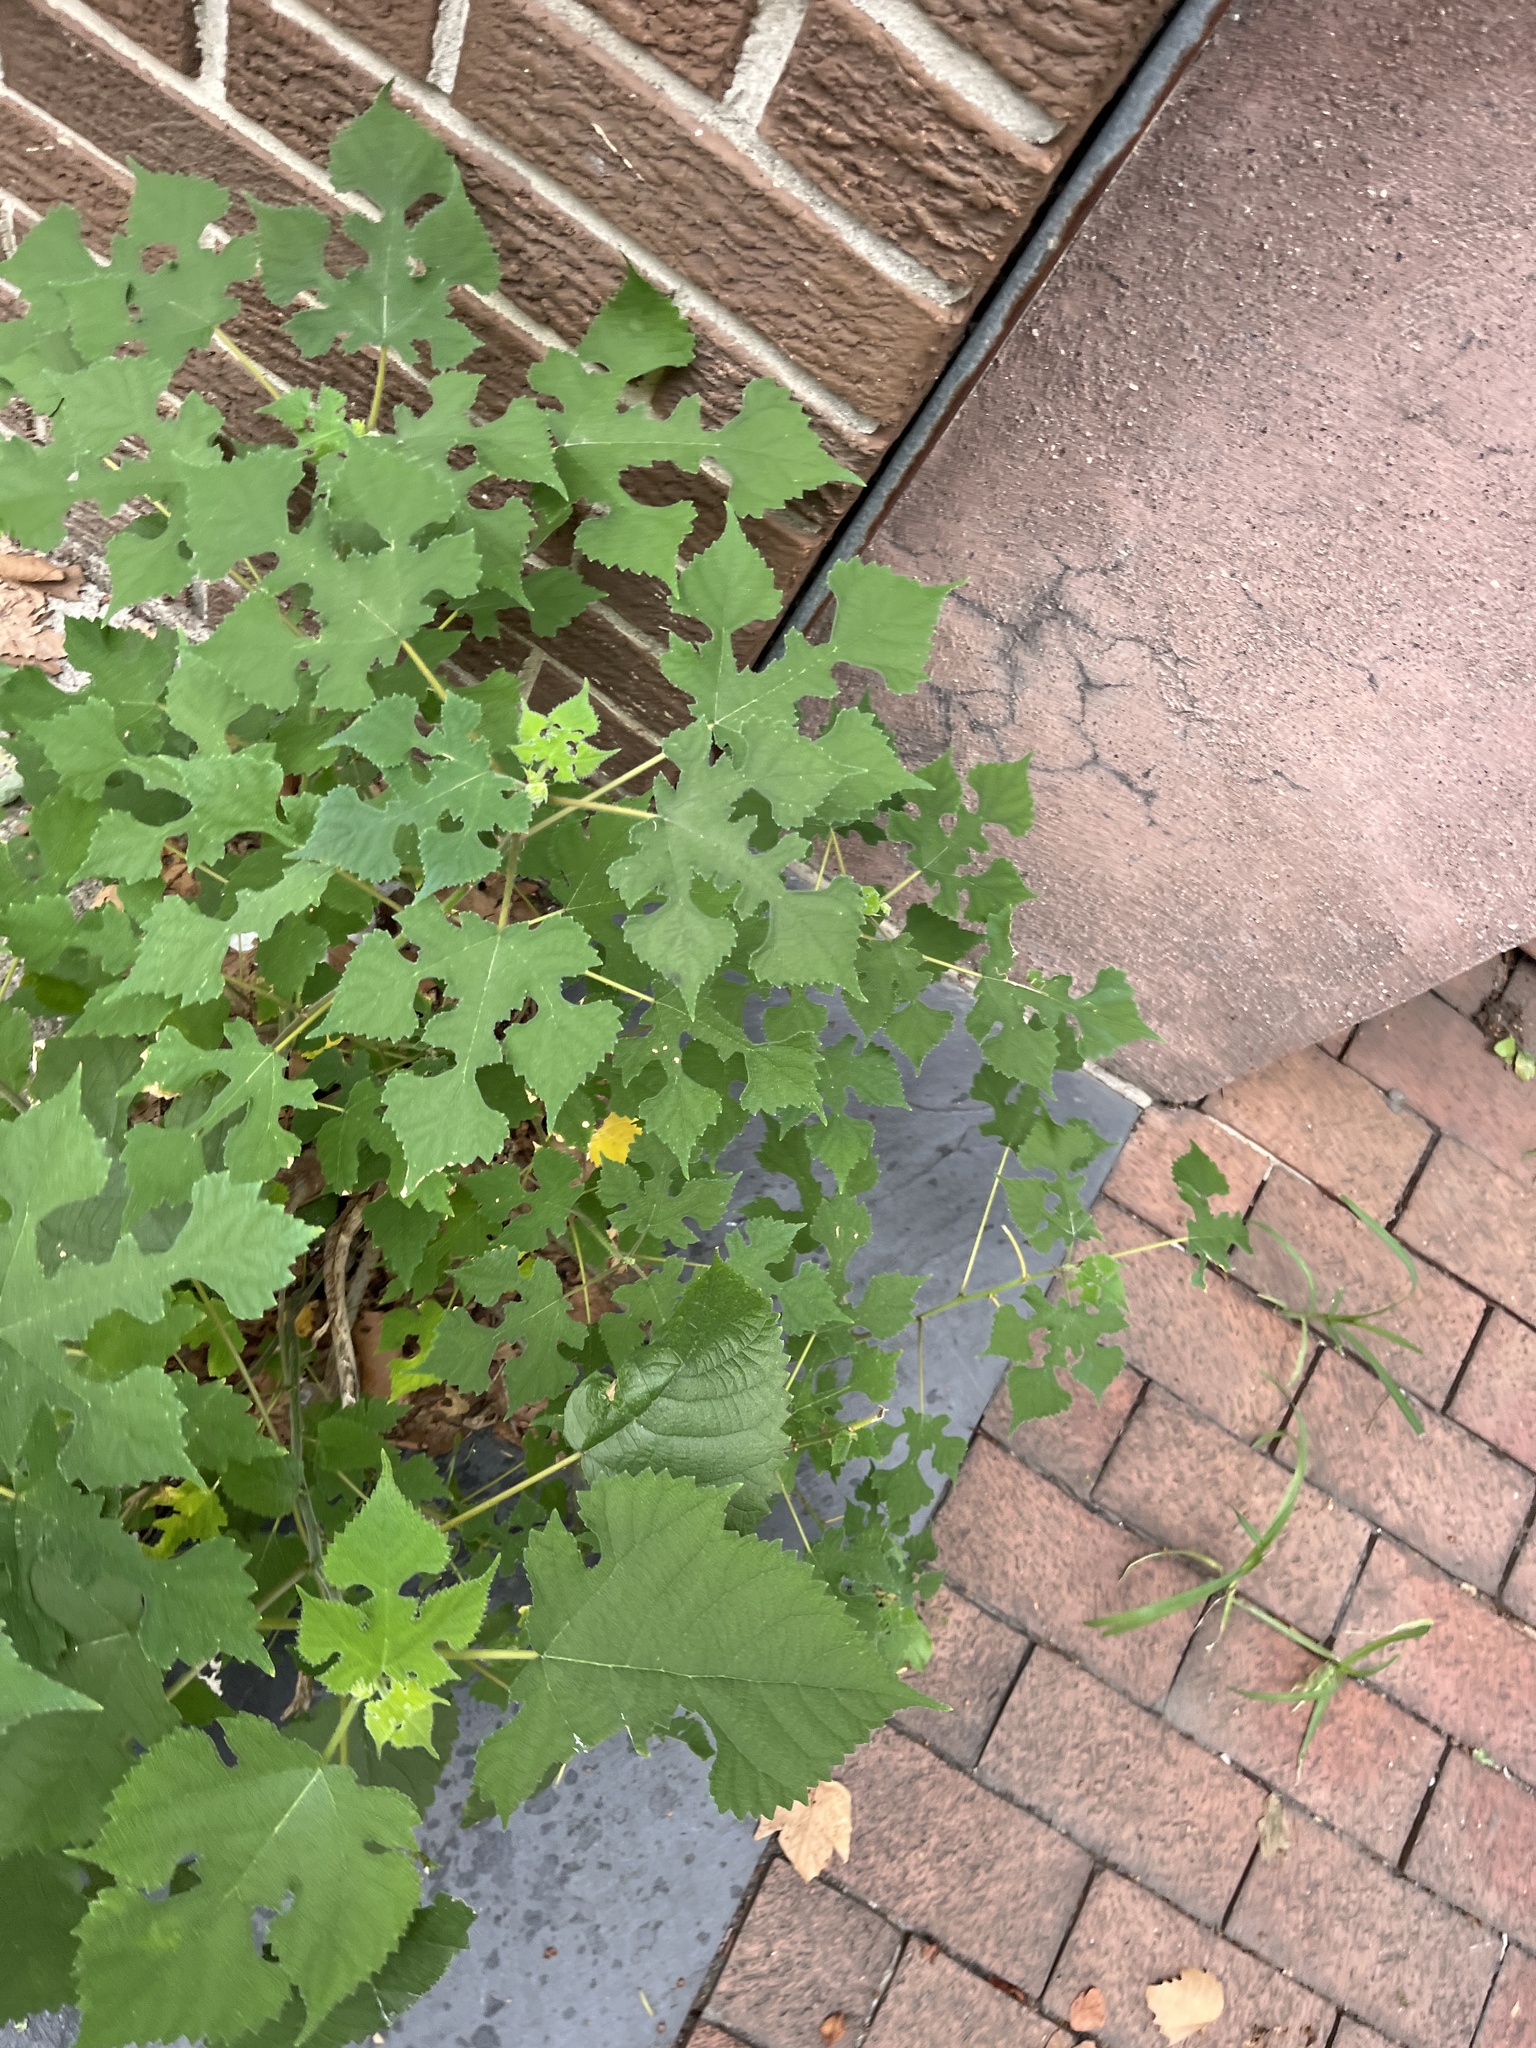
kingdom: Plantae
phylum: Tracheophyta
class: Magnoliopsida
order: Rosales
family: Moraceae
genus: Broussonetia
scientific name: Broussonetia papyrifera
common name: Paper mulberry
